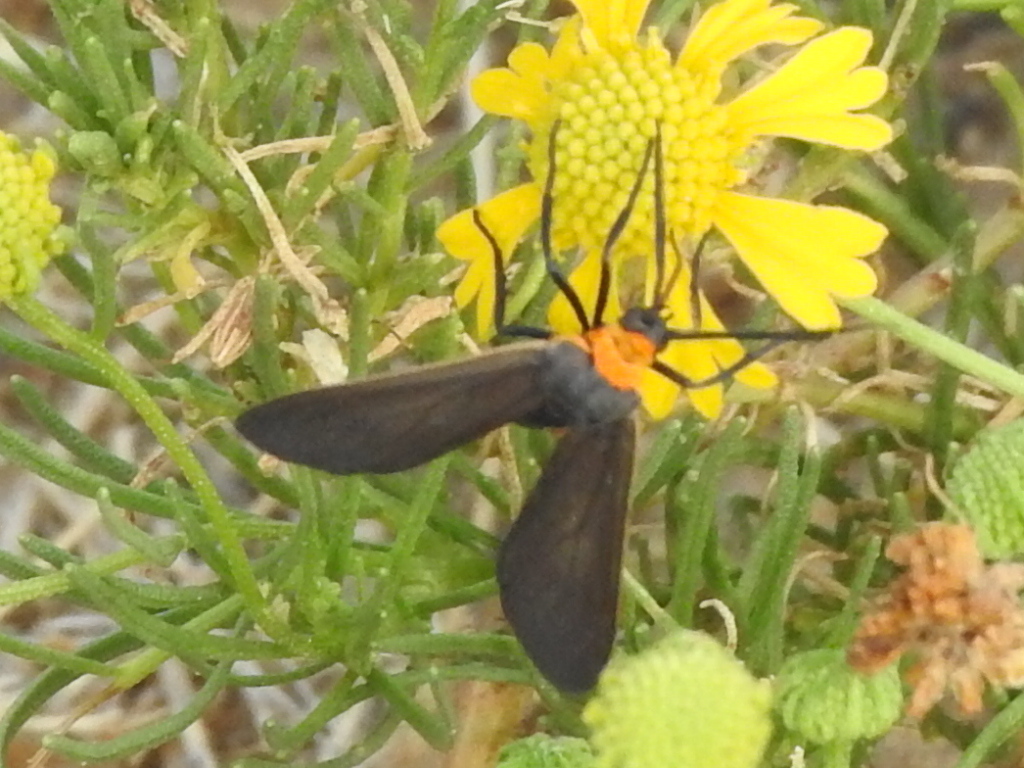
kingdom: Animalia
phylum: Arthropoda
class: Insecta
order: Lepidoptera
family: Erebidae
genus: Cisseps
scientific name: Cisseps fulvicollis
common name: Yellow-collared scape moth
